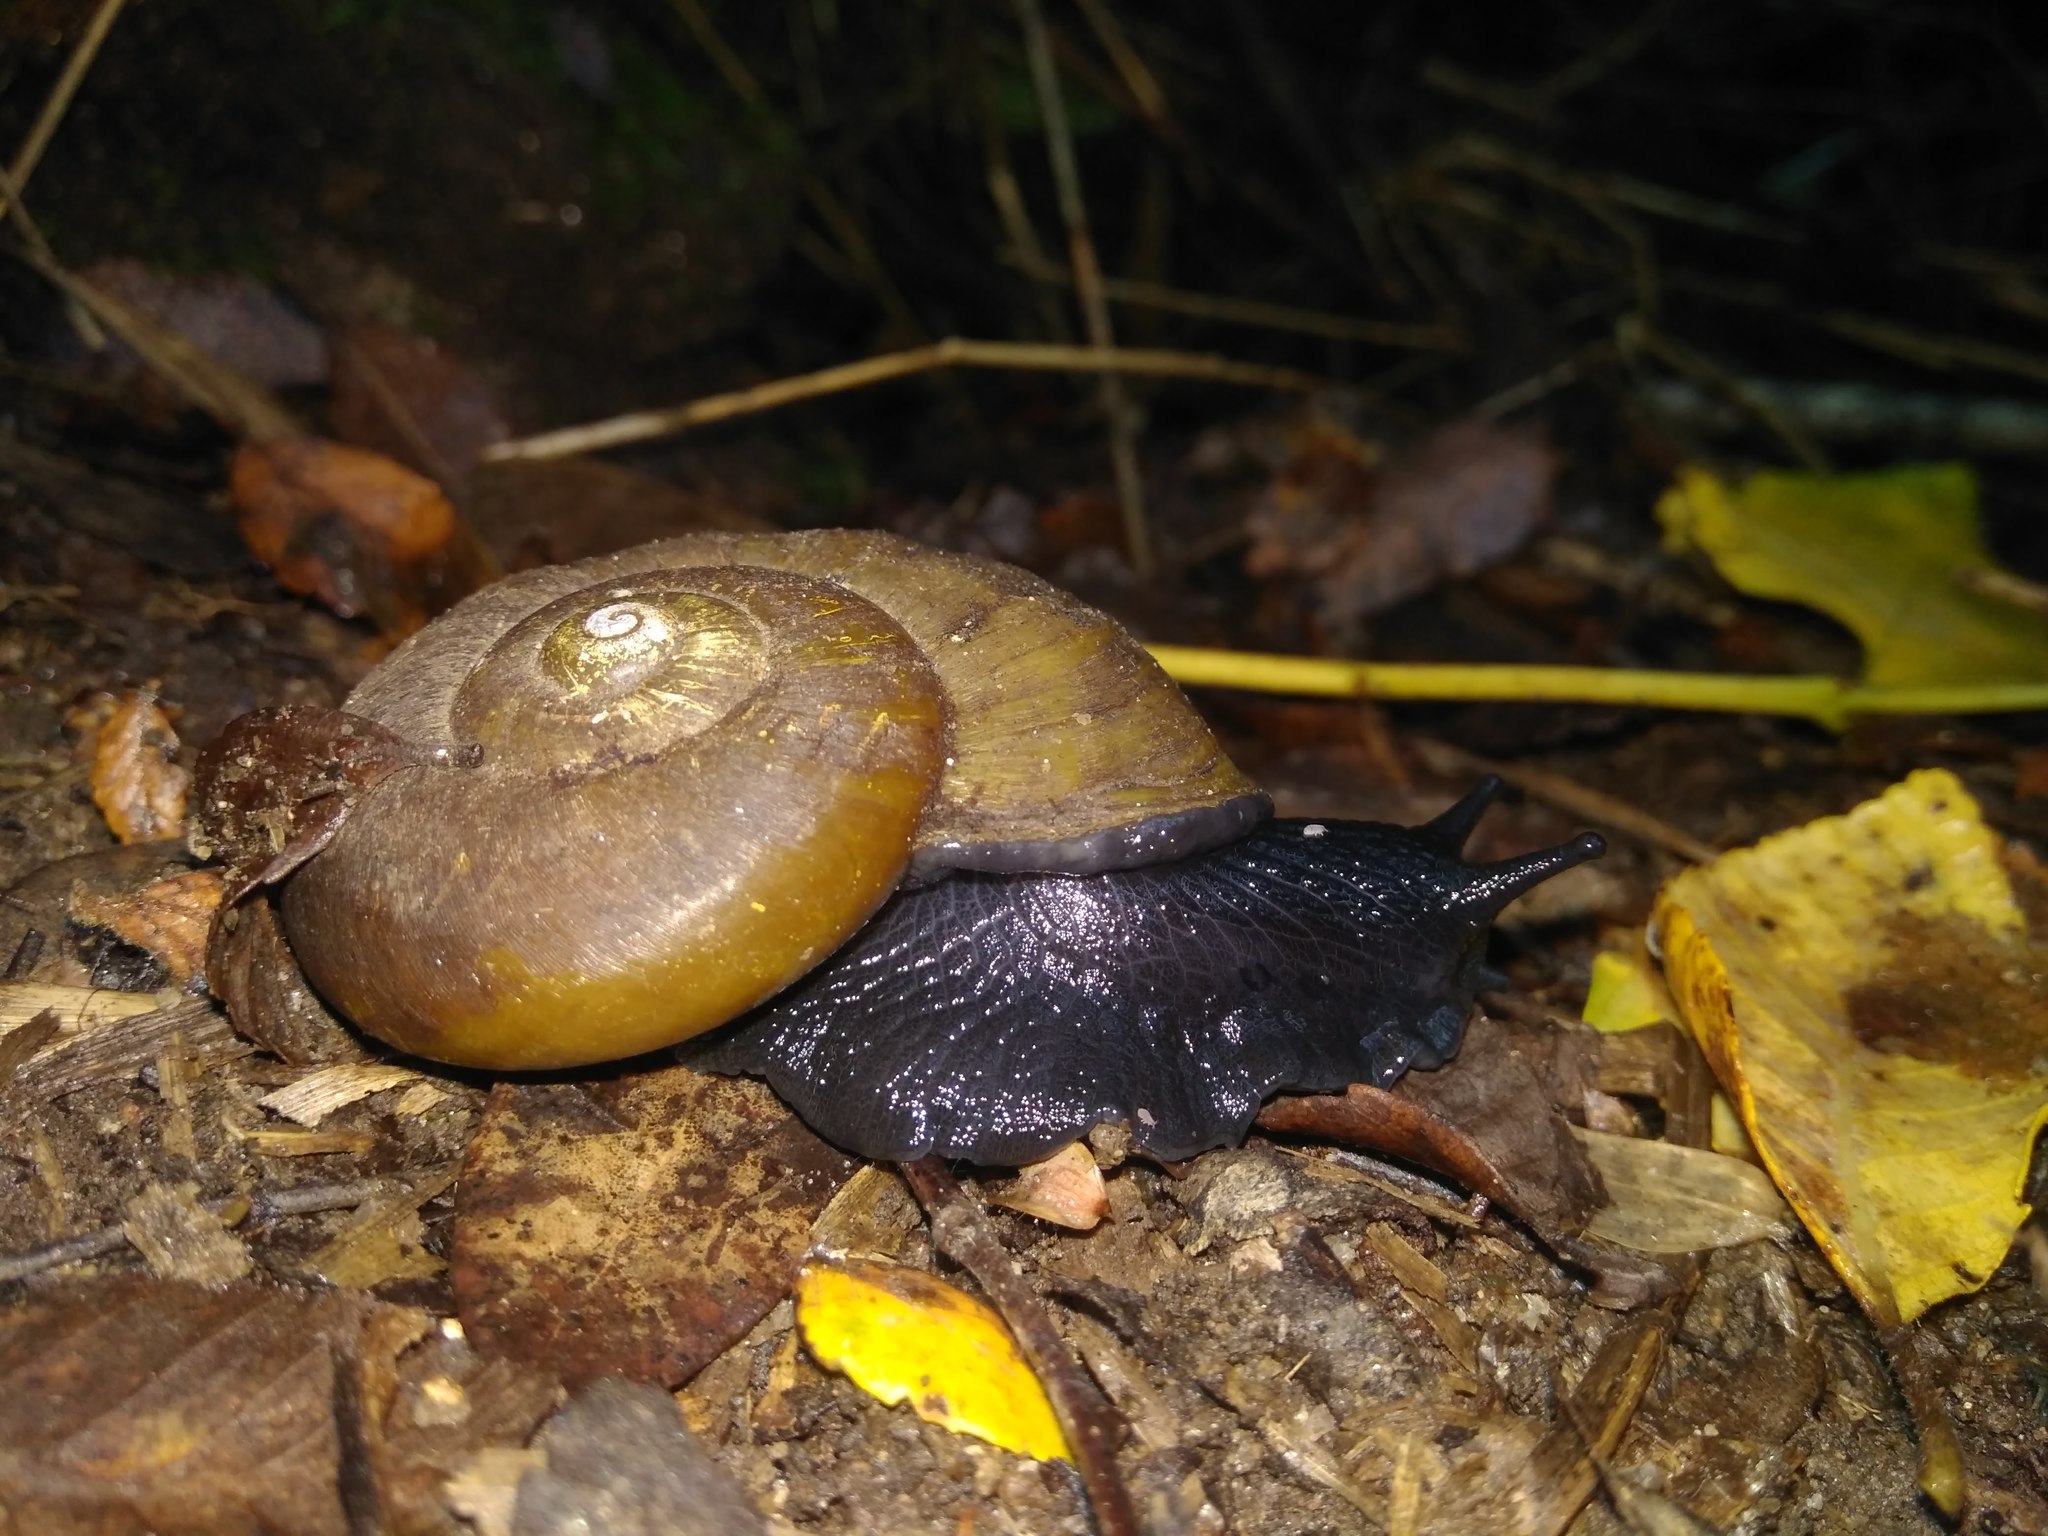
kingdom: Animalia
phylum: Mollusca
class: Gastropoda
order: Stylommatophora
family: Macrocyclidae
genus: Macrocyclis
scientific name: Macrocyclis peruvianus
